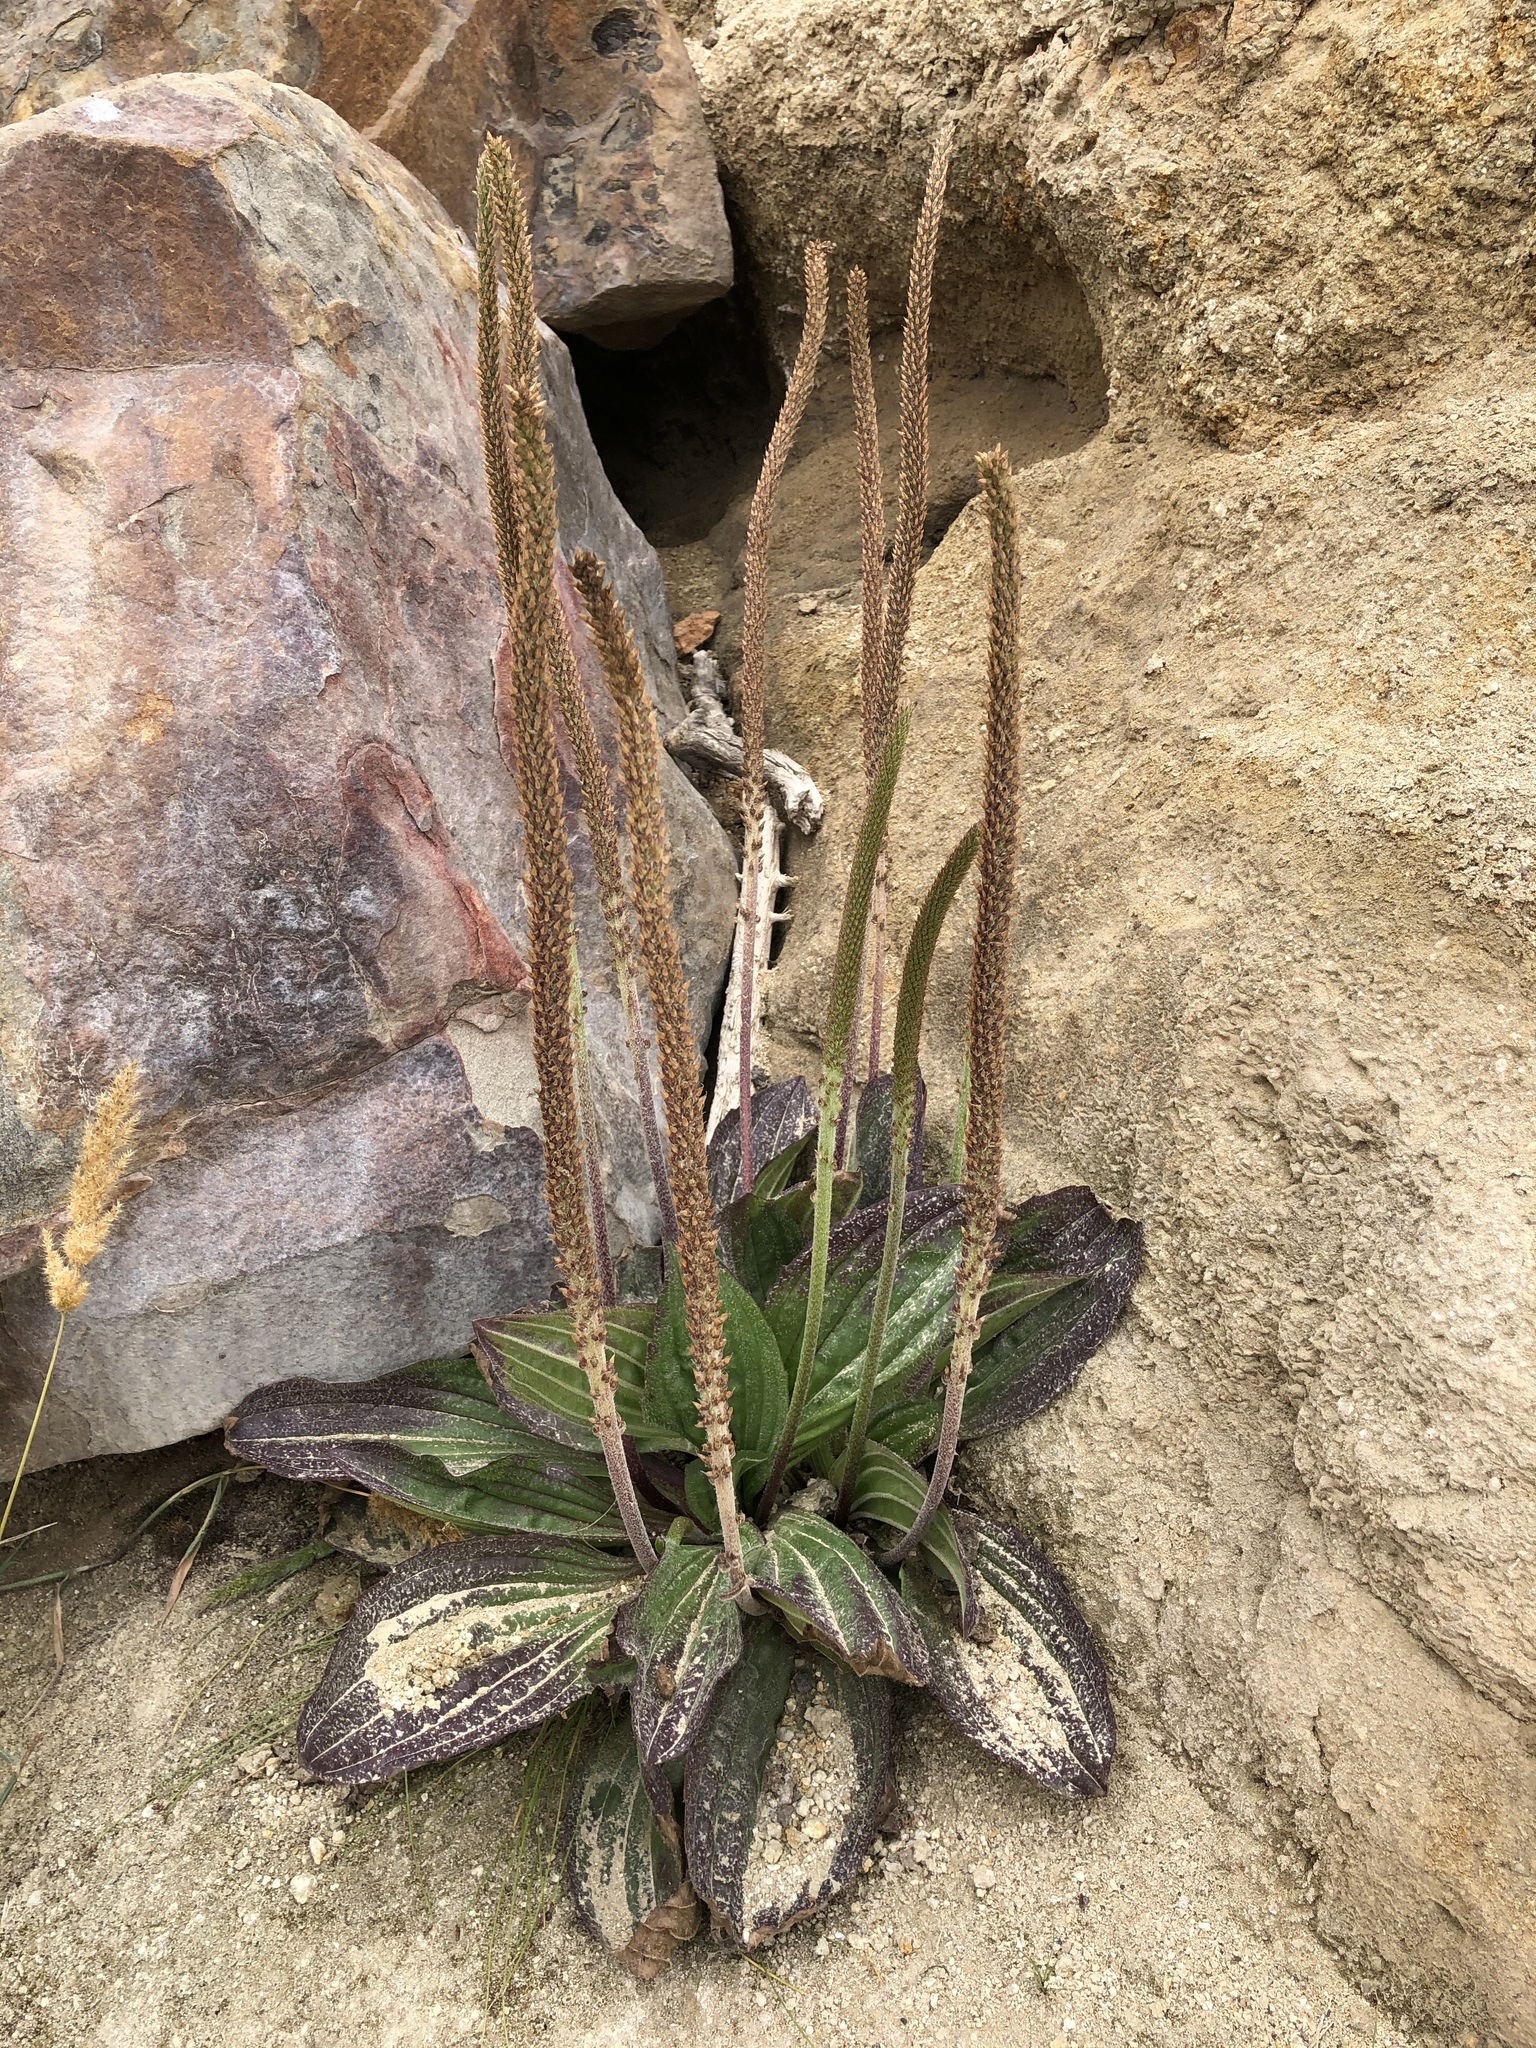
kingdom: Plantae
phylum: Tracheophyta
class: Magnoliopsida
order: Lamiales
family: Plantaginaceae
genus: Plantago
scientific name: Plantago subnuda
